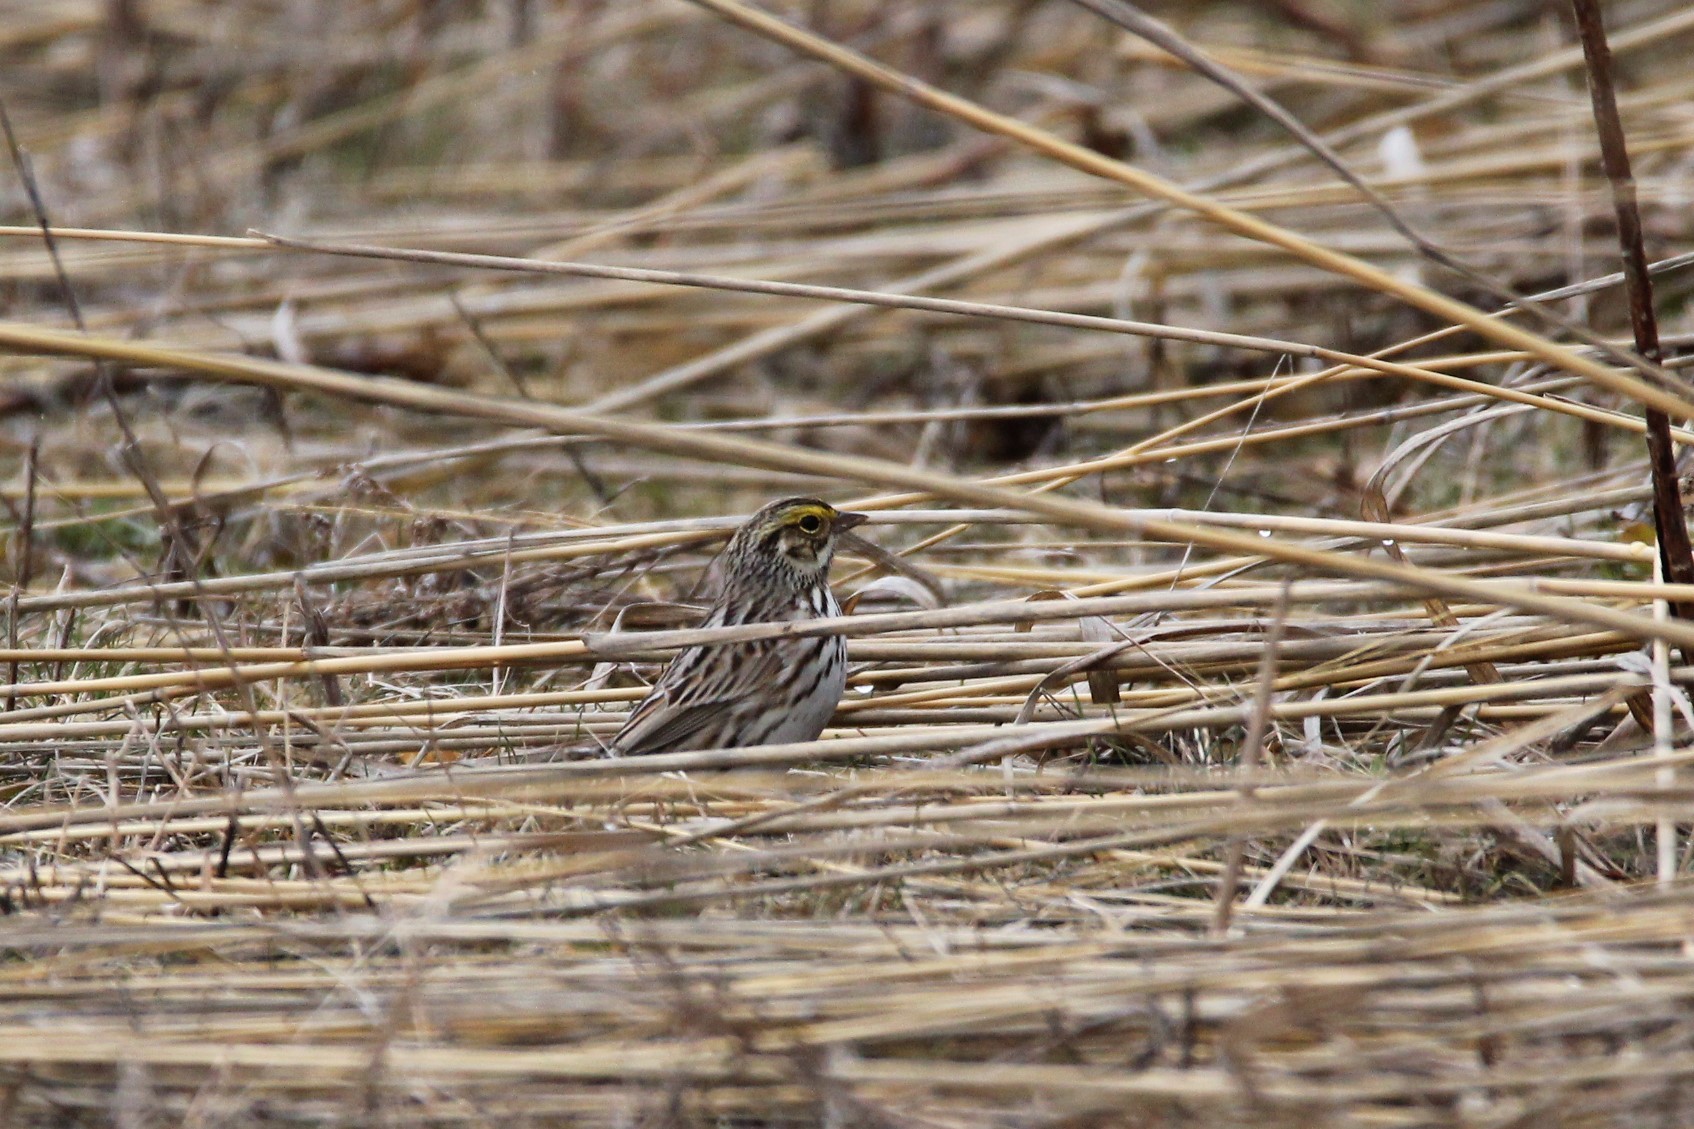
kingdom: Animalia
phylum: Chordata
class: Aves
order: Passeriformes
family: Passerellidae
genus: Passerculus
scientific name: Passerculus sandwichensis
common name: Savannah sparrow
